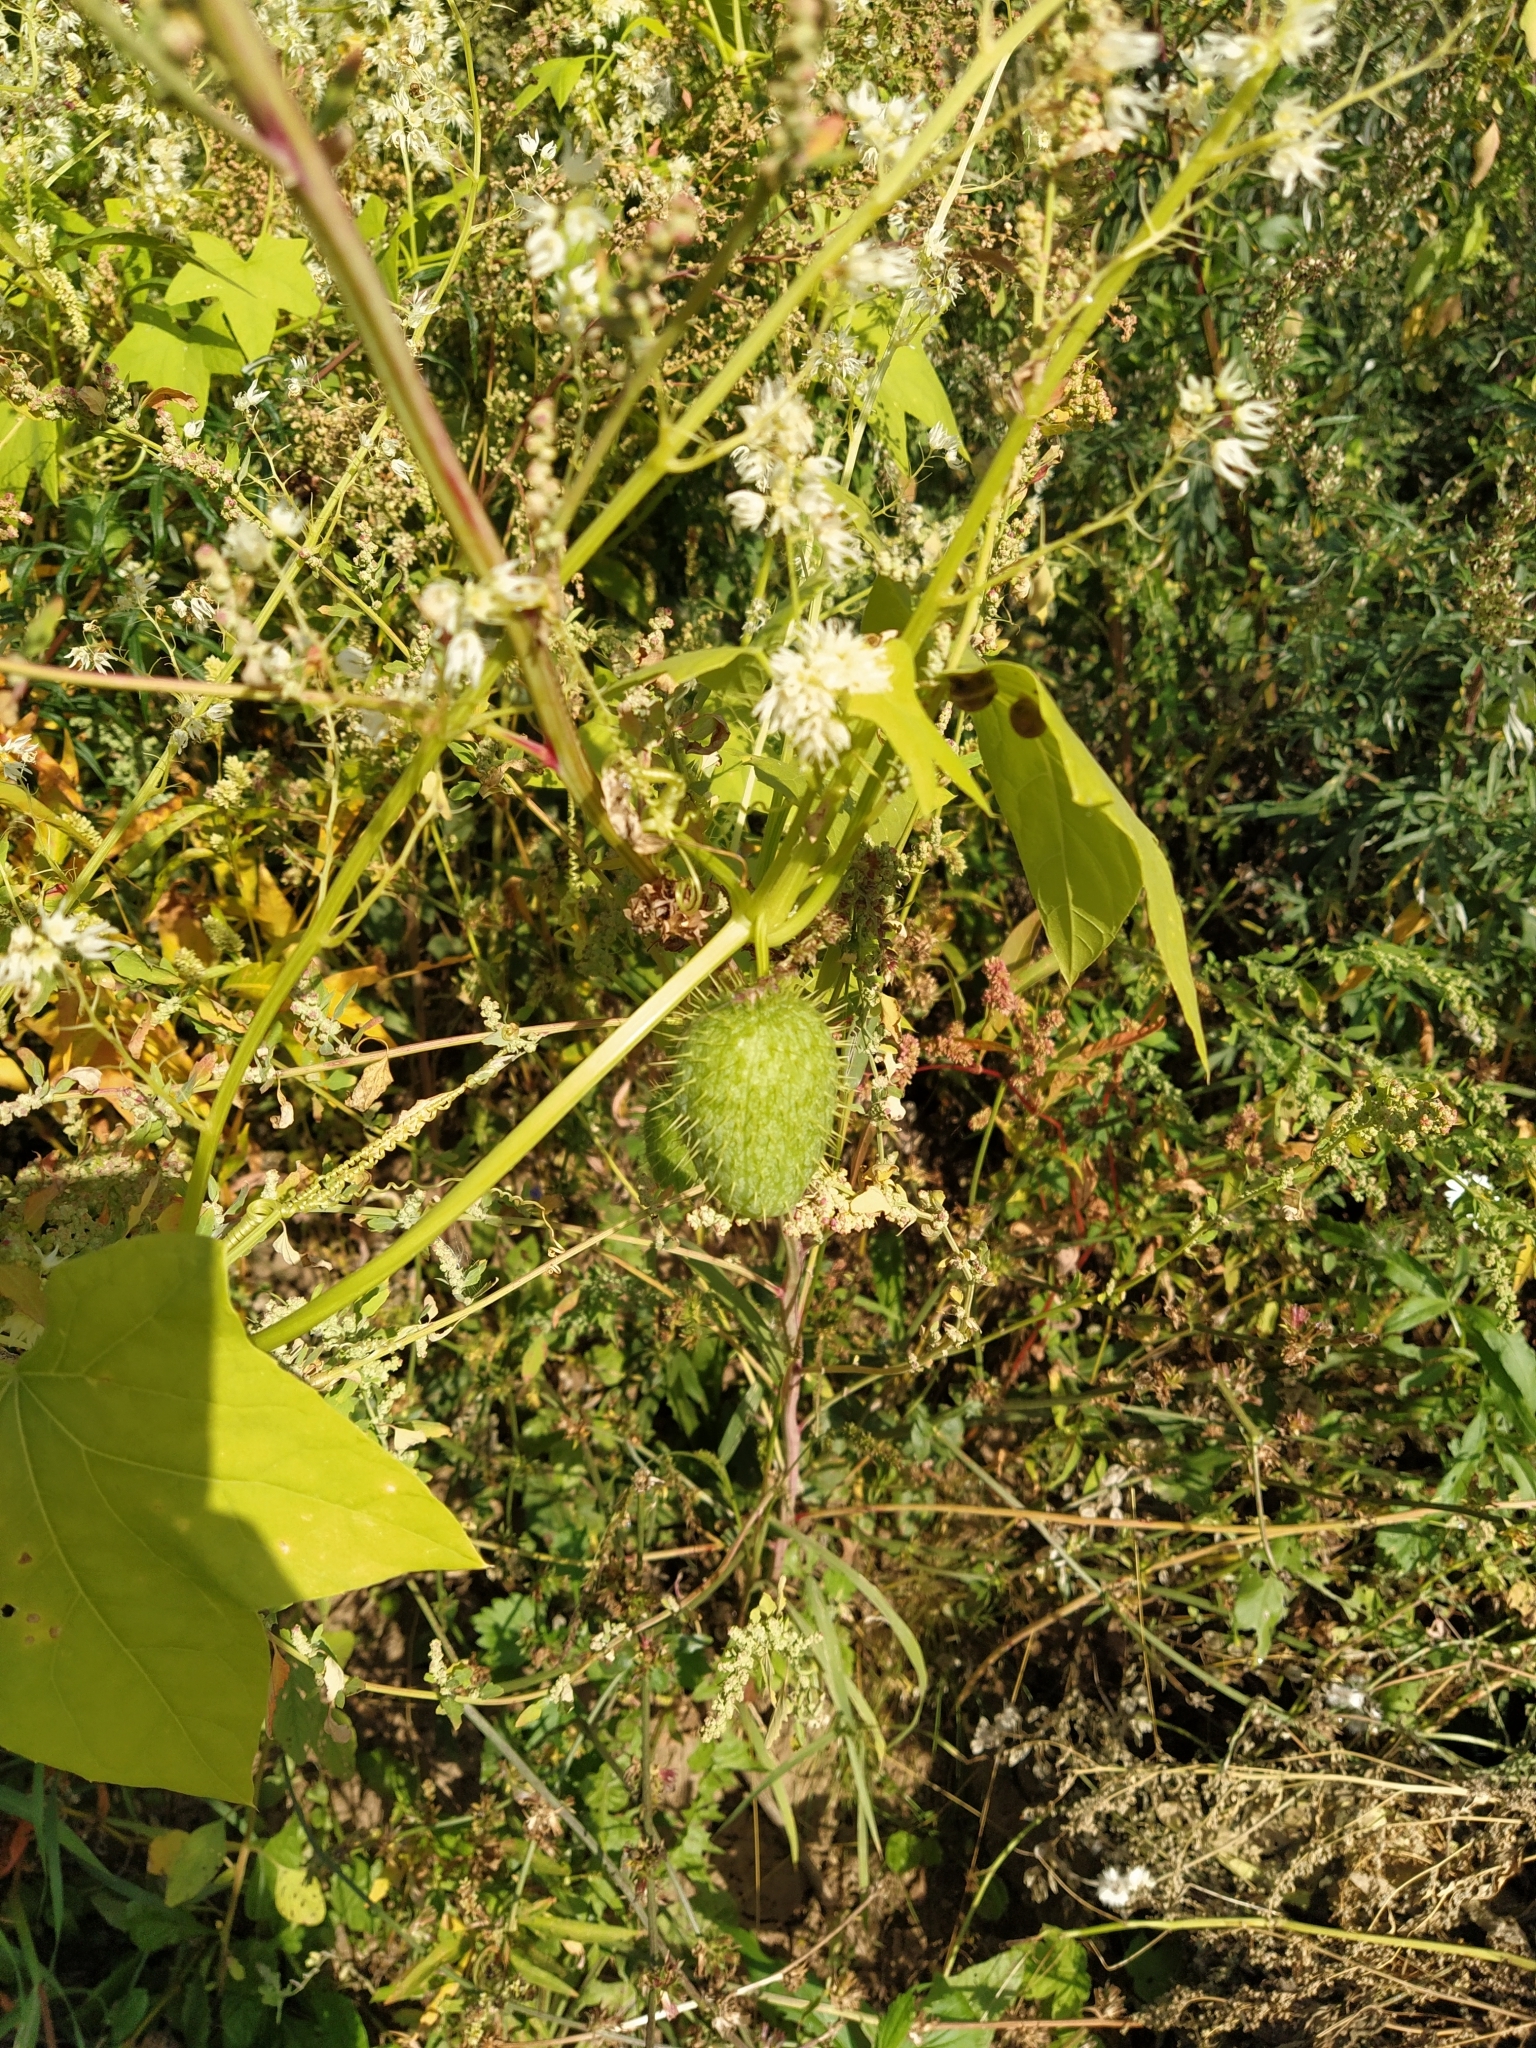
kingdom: Plantae
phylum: Tracheophyta
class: Magnoliopsida
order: Cucurbitales
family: Cucurbitaceae
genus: Echinocystis
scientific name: Echinocystis lobata
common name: Wild cucumber
